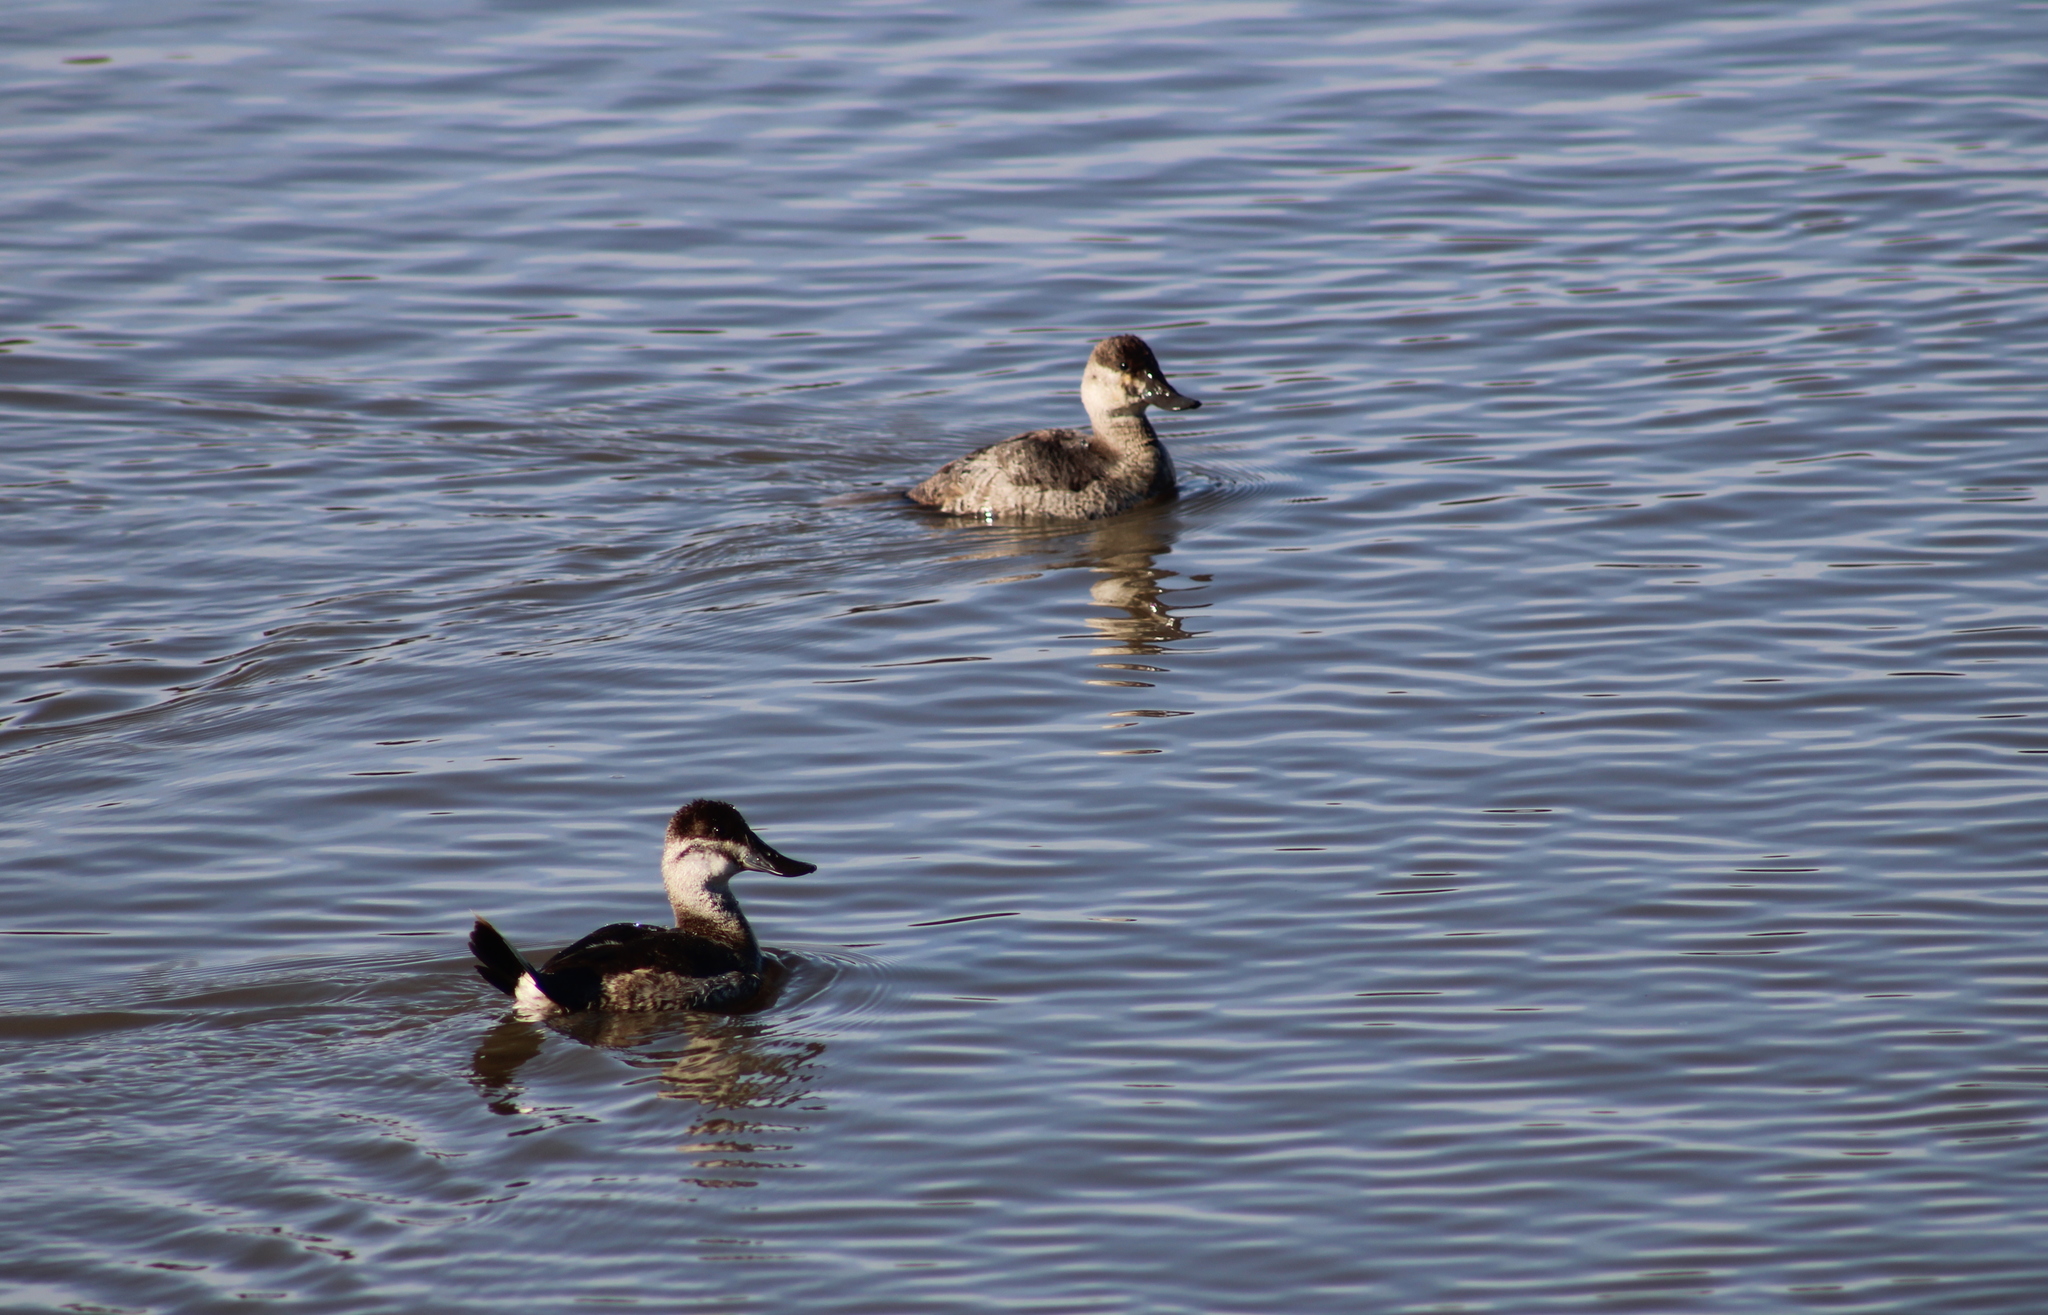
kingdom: Animalia
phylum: Chordata
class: Aves
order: Anseriformes
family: Anatidae
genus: Oxyura
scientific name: Oxyura jamaicensis
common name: Ruddy duck
